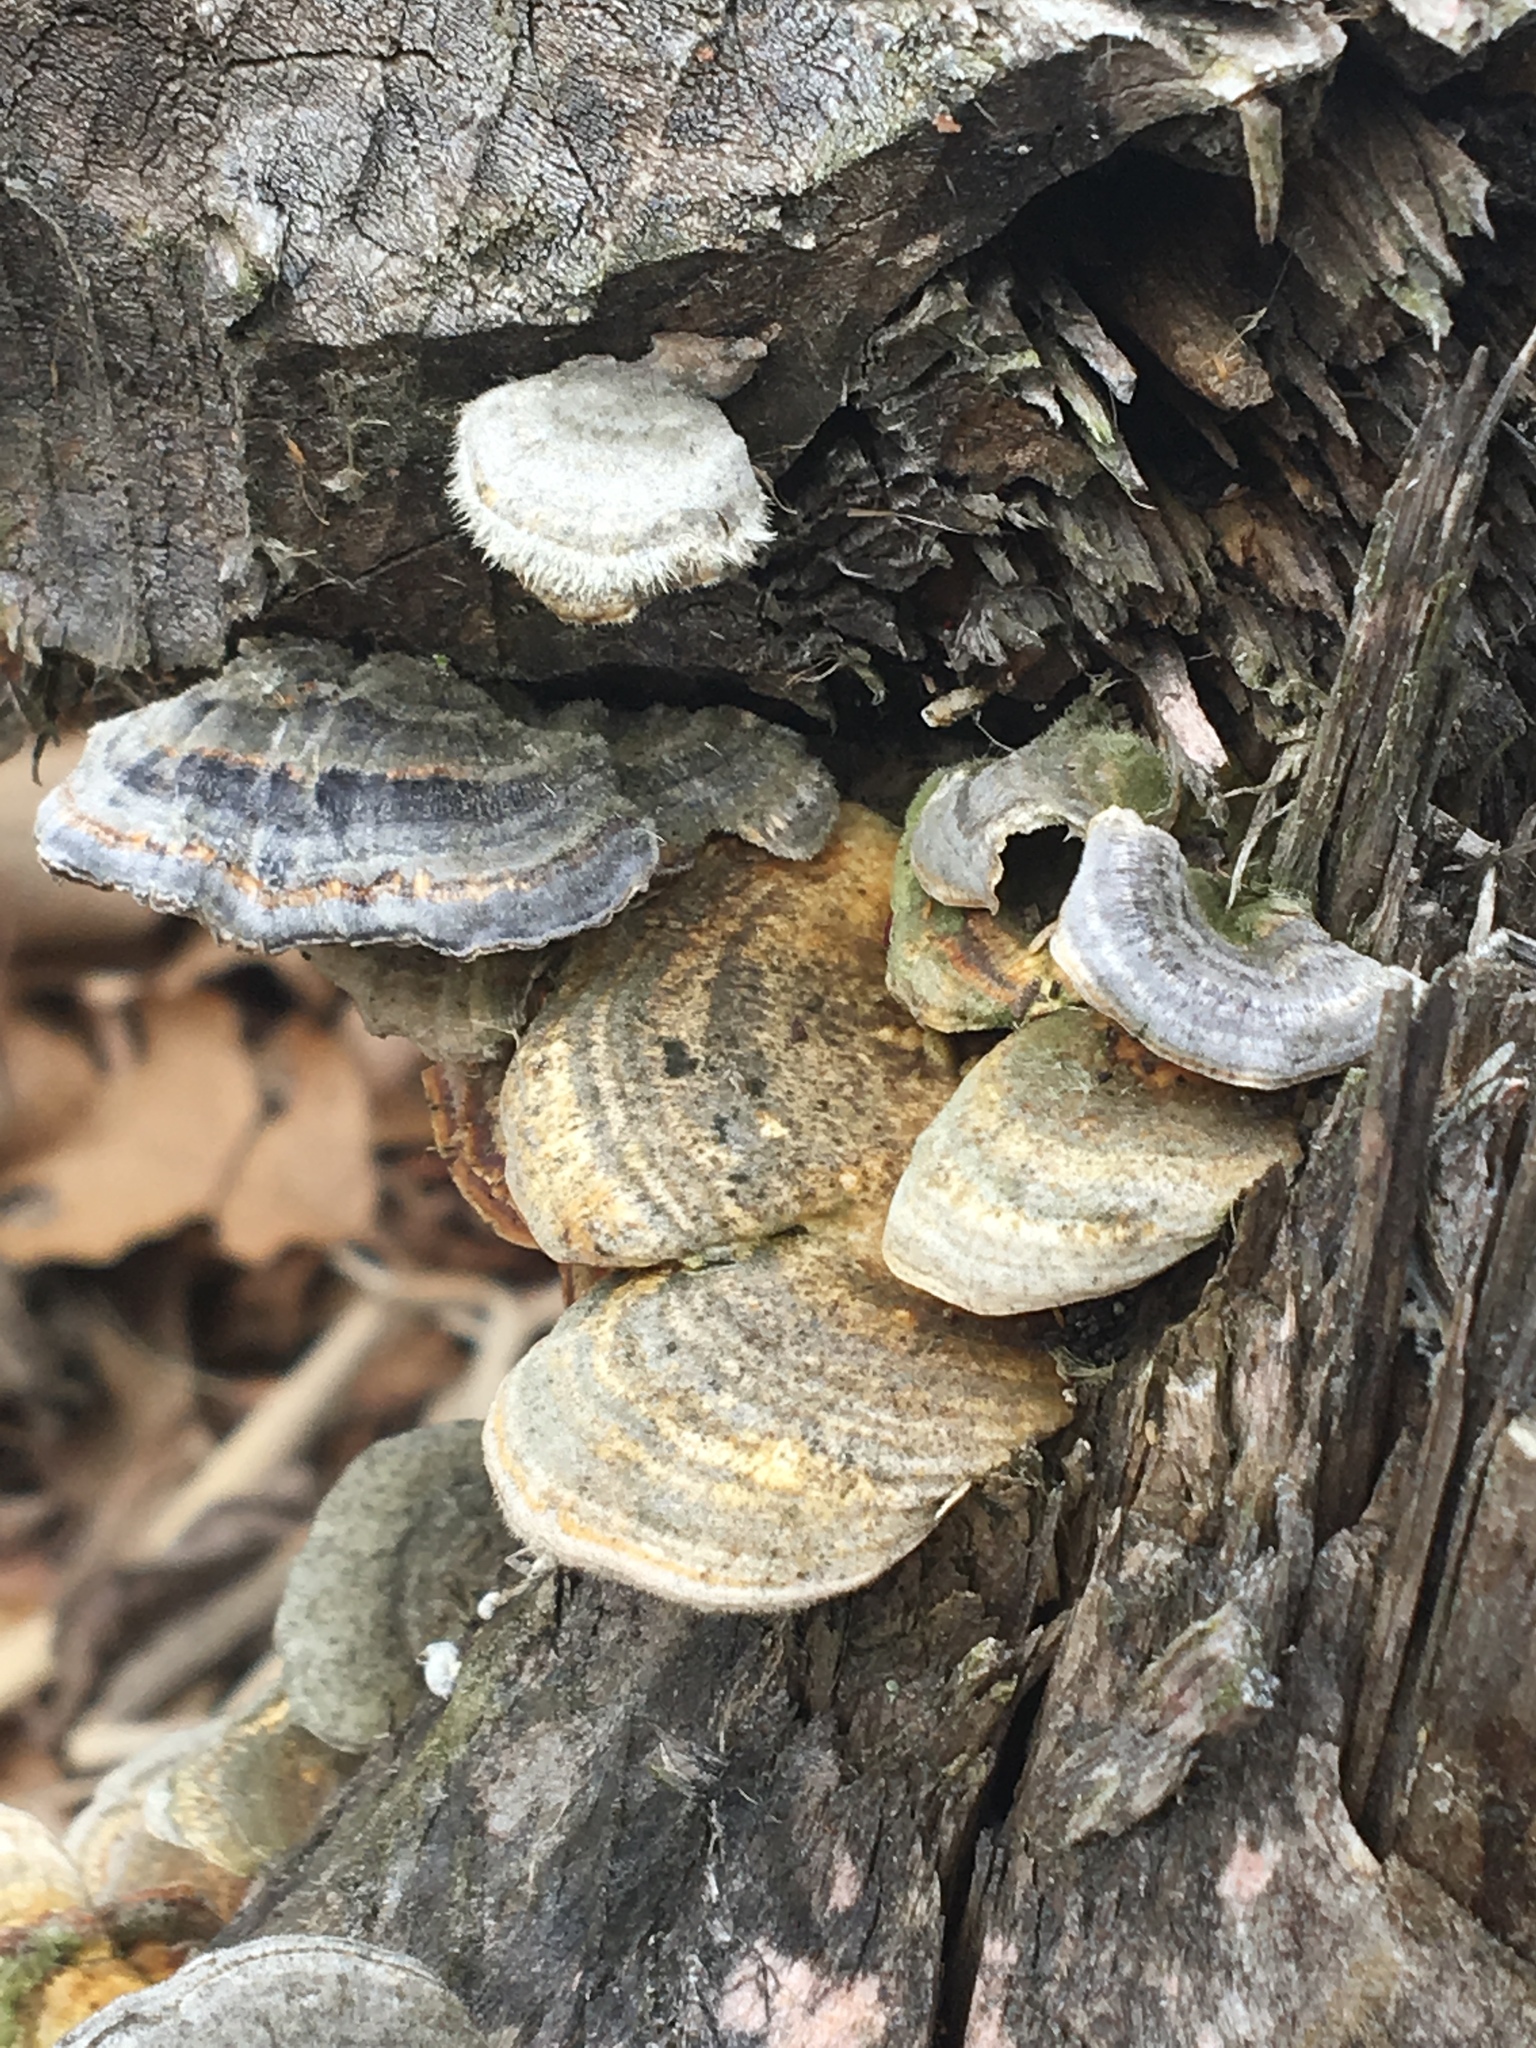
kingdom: Fungi
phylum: Basidiomycota
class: Agaricomycetes
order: Polyporales
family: Polyporaceae
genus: Trametes
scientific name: Trametes versicolor
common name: Turkeytail
